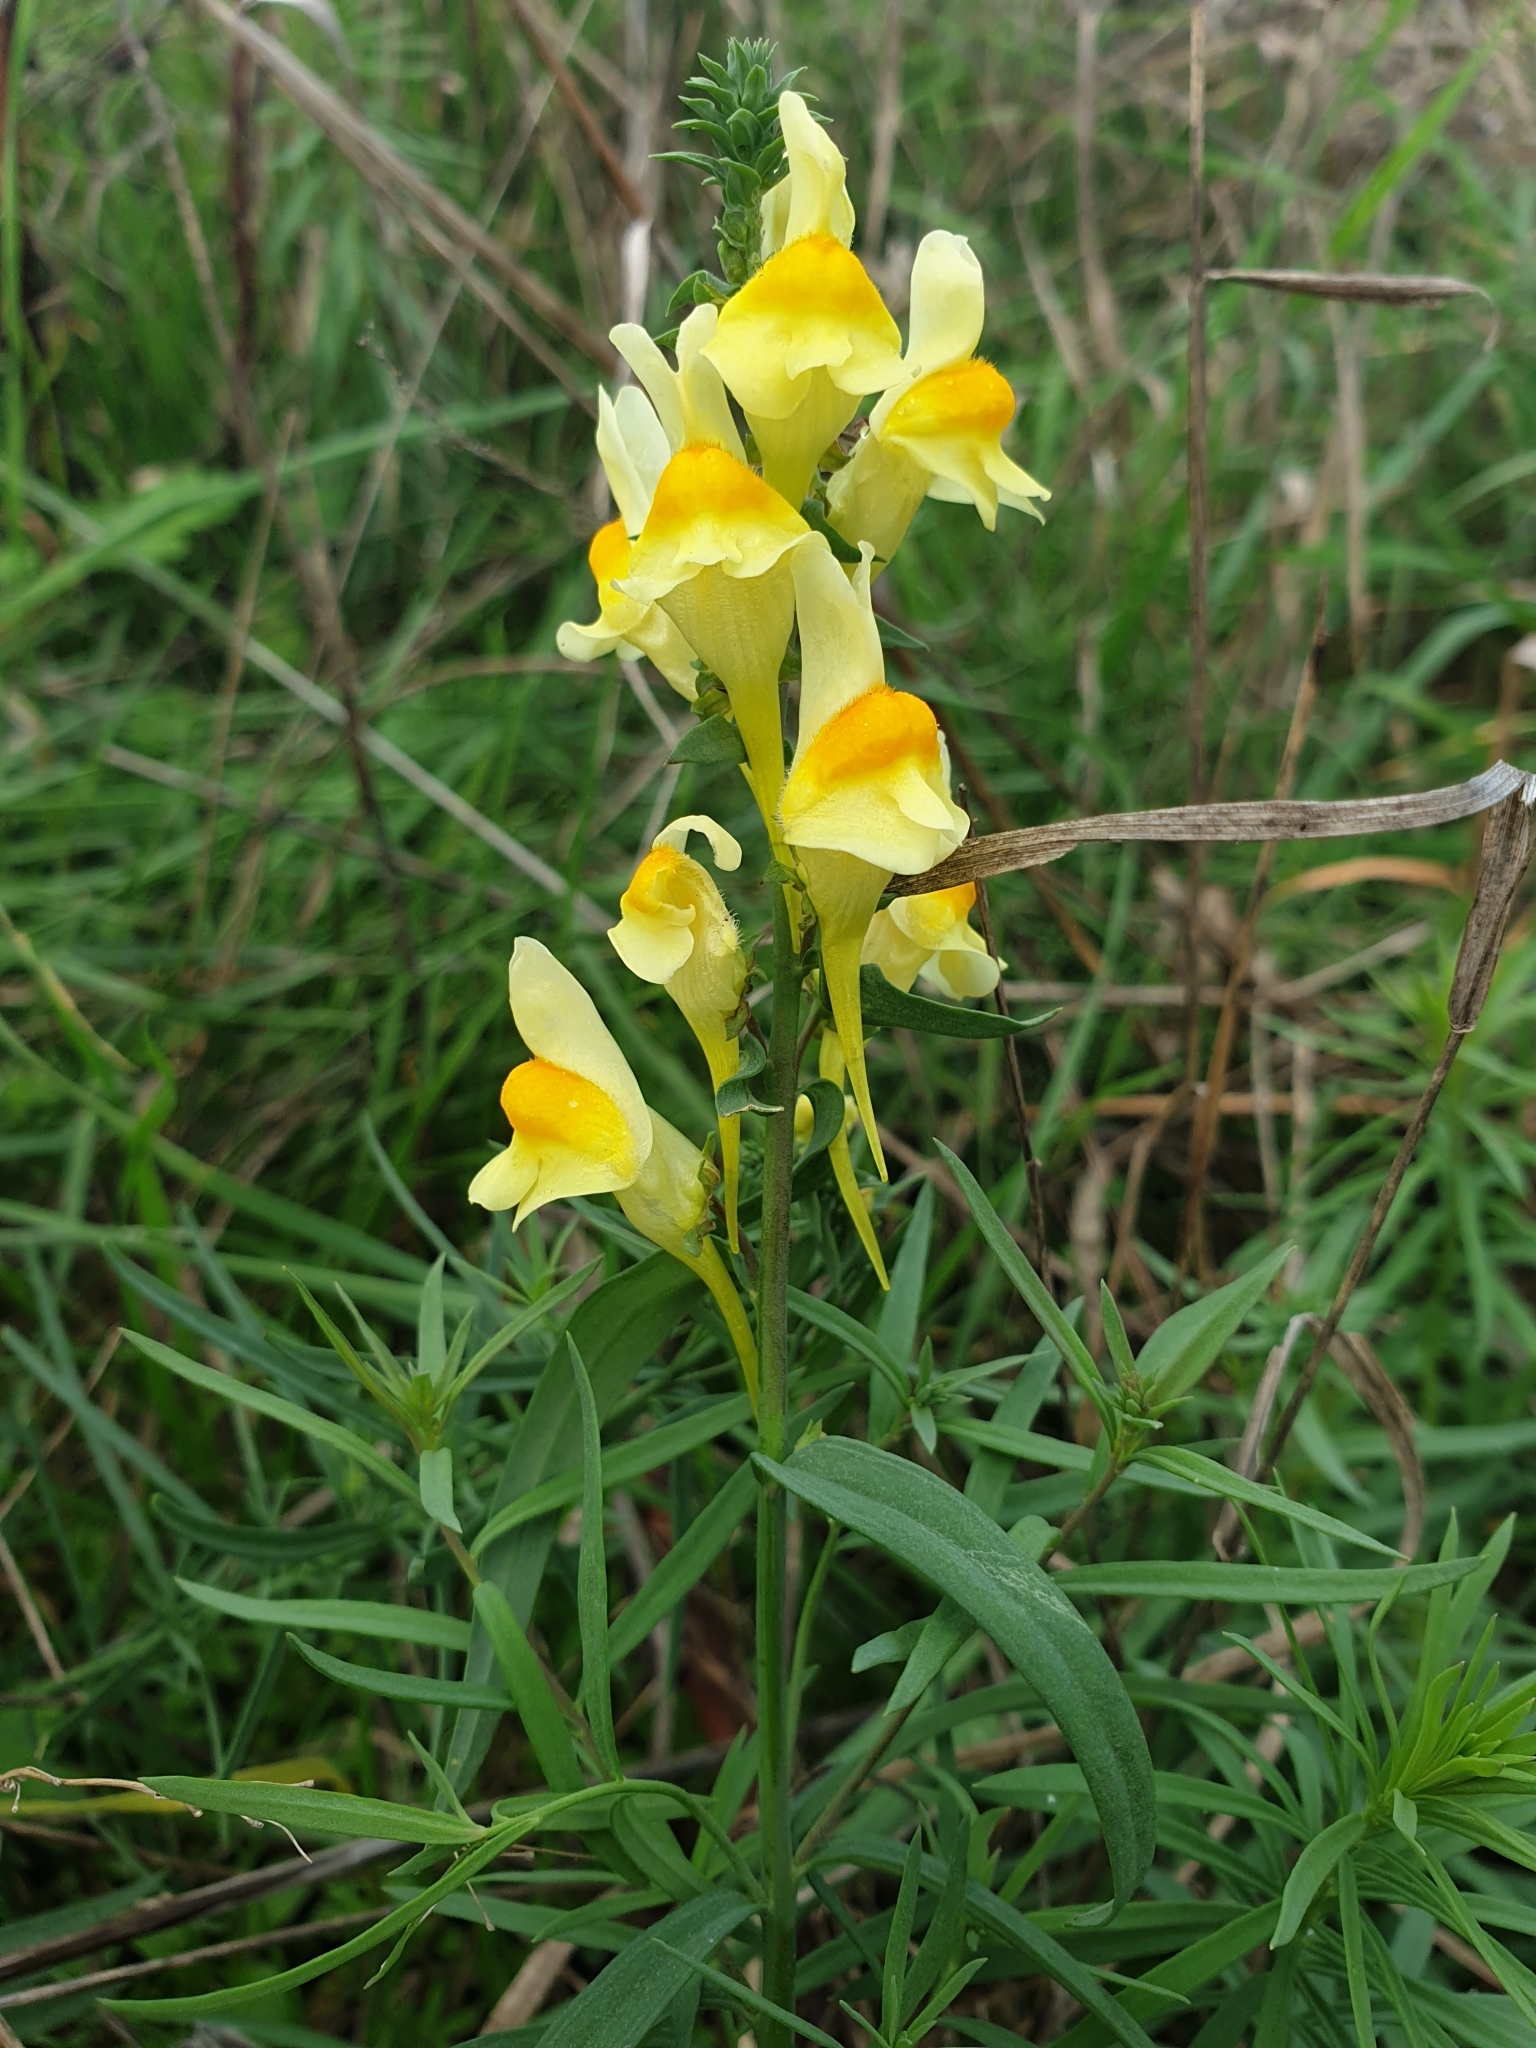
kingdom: Plantae
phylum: Tracheophyta
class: Magnoliopsida
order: Lamiales
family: Plantaginaceae
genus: Linaria
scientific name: Linaria vulgaris
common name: Butter and eggs
